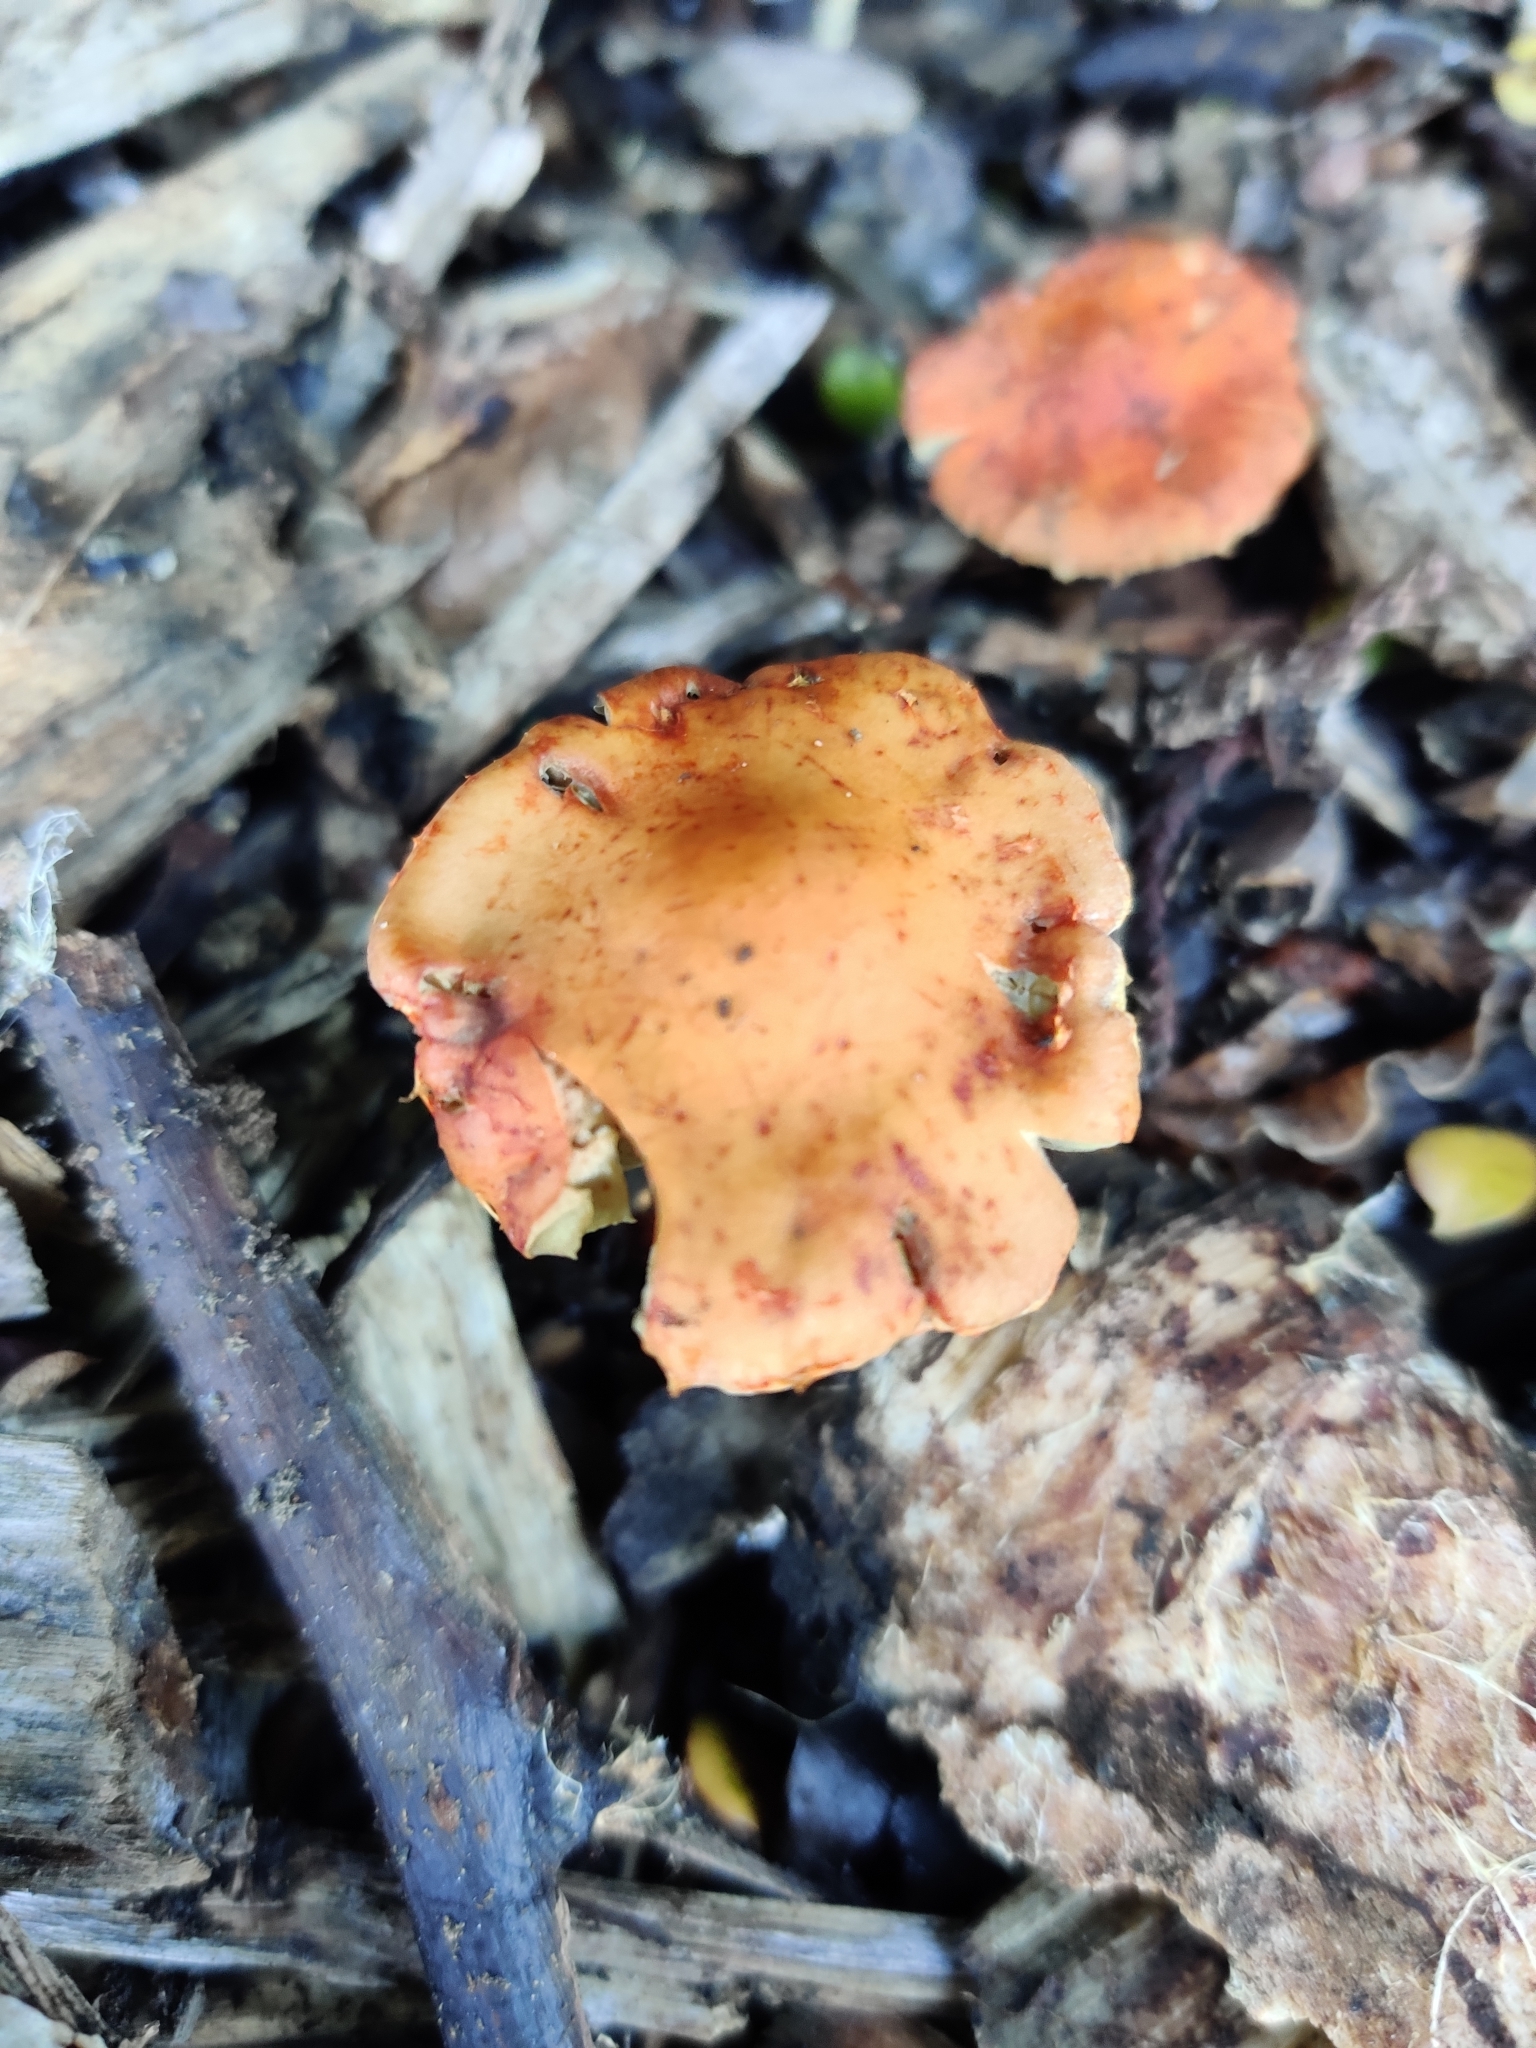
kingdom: Fungi
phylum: Basidiomycota
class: Agaricomycetes
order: Agaricales
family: Strophariaceae
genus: Leratiomyces
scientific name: Leratiomyces ceres
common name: Redlead roundhead
